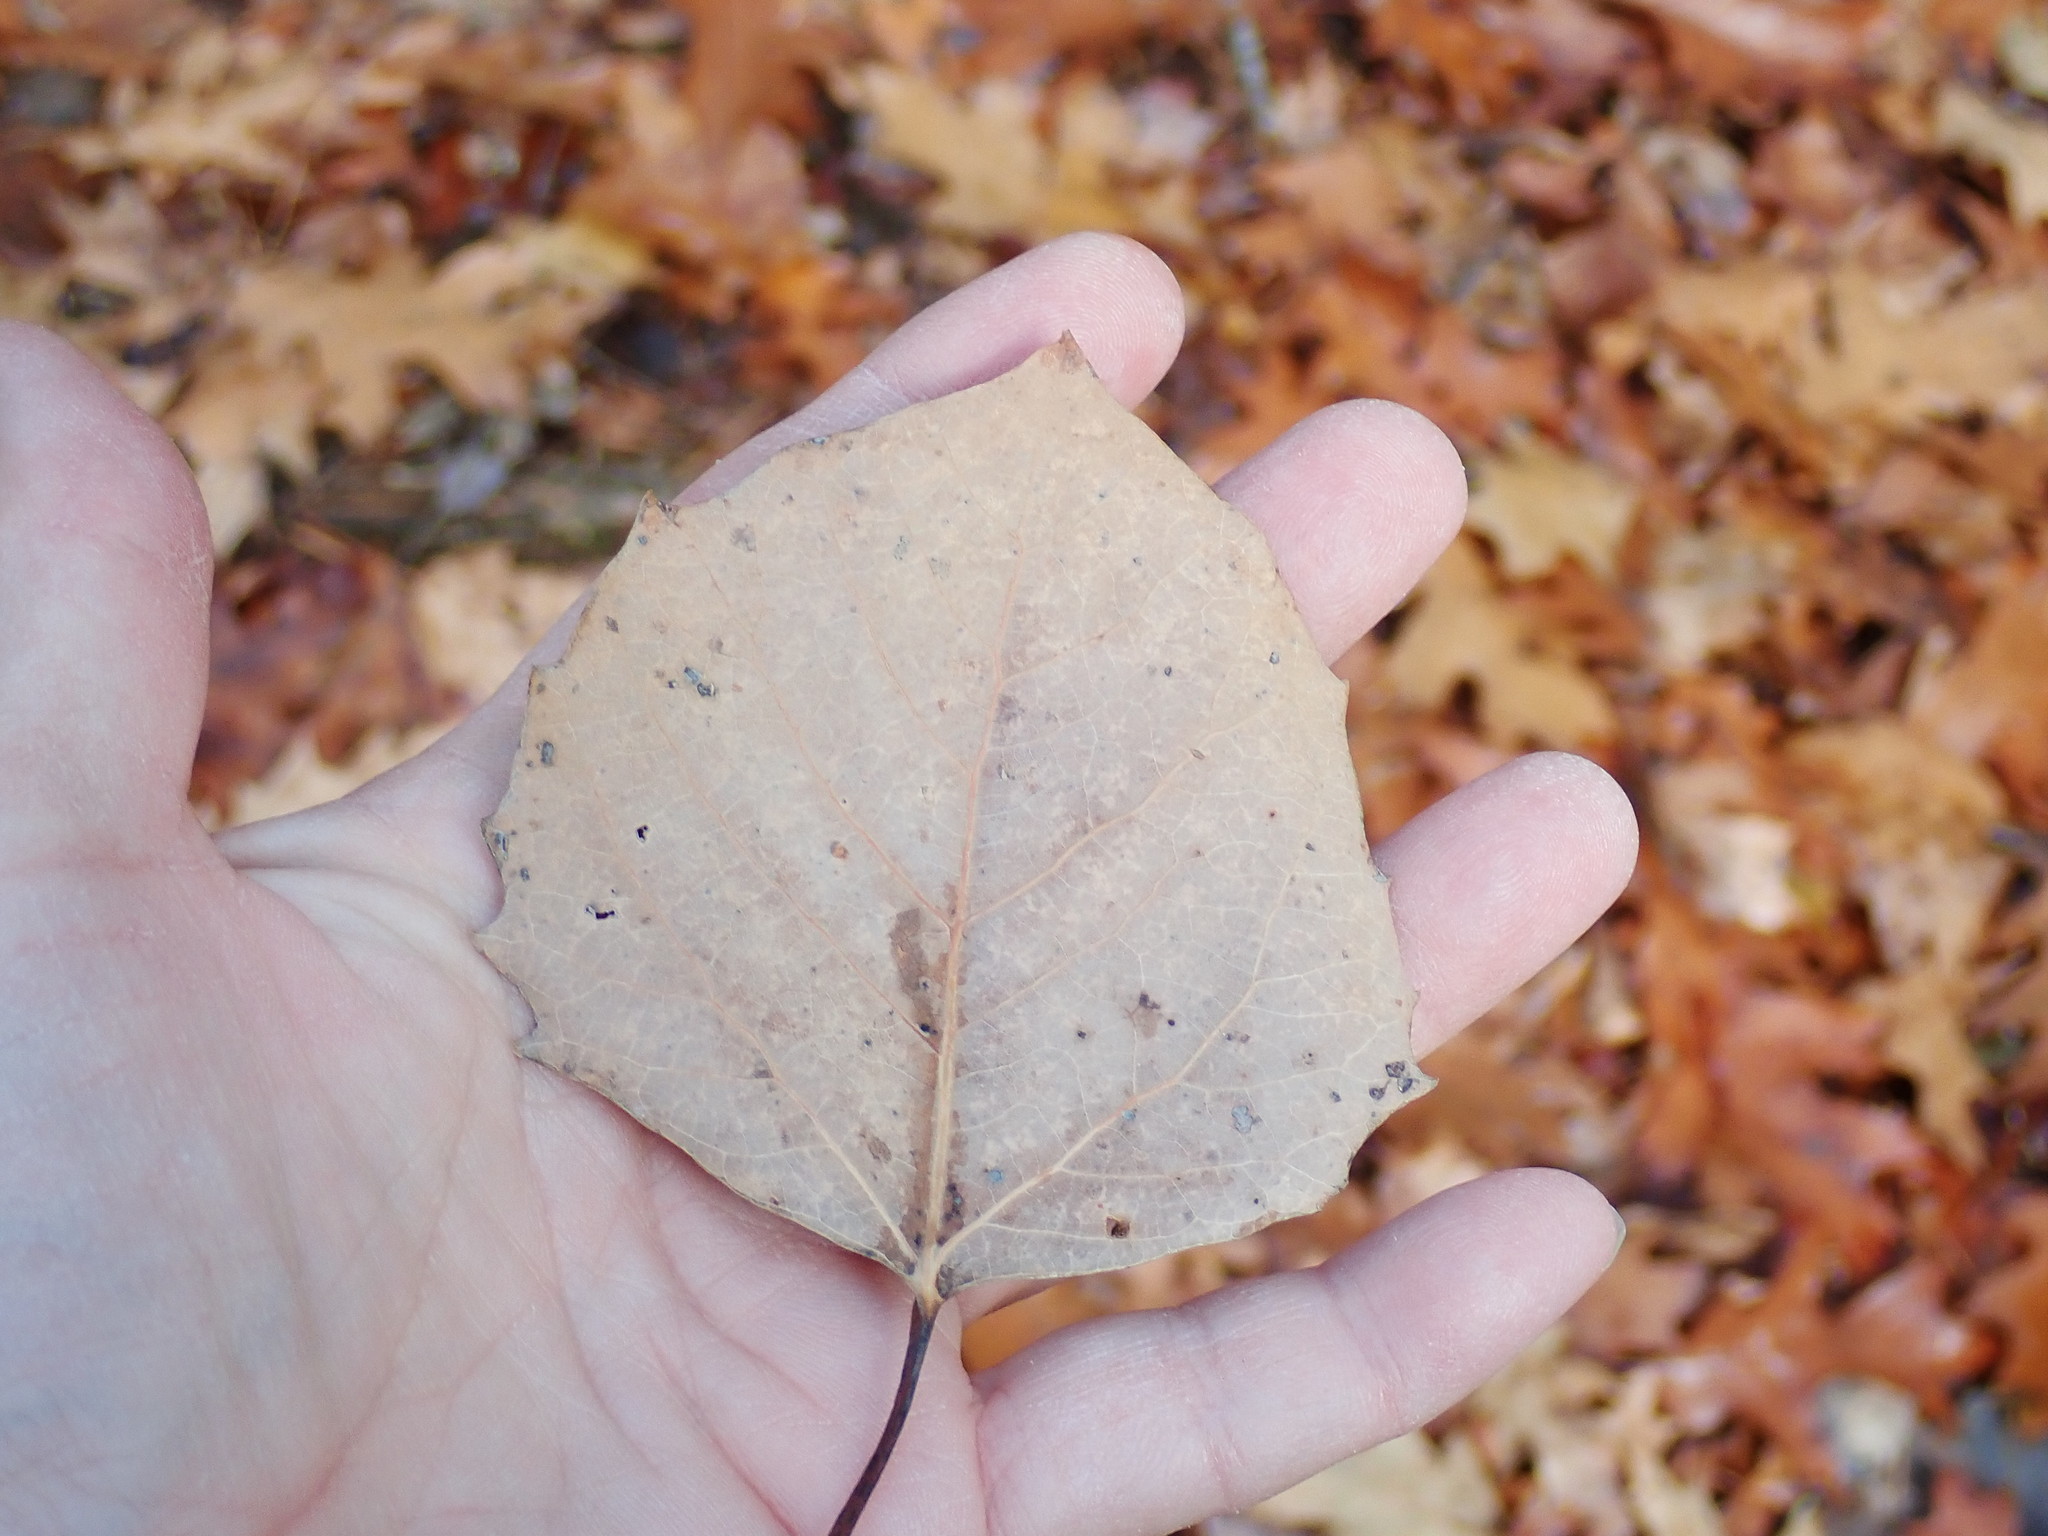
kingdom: Plantae
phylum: Tracheophyta
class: Magnoliopsida
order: Malpighiales
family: Salicaceae
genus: Populus
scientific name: Populus grandidentata
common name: Bigtooth aspen
